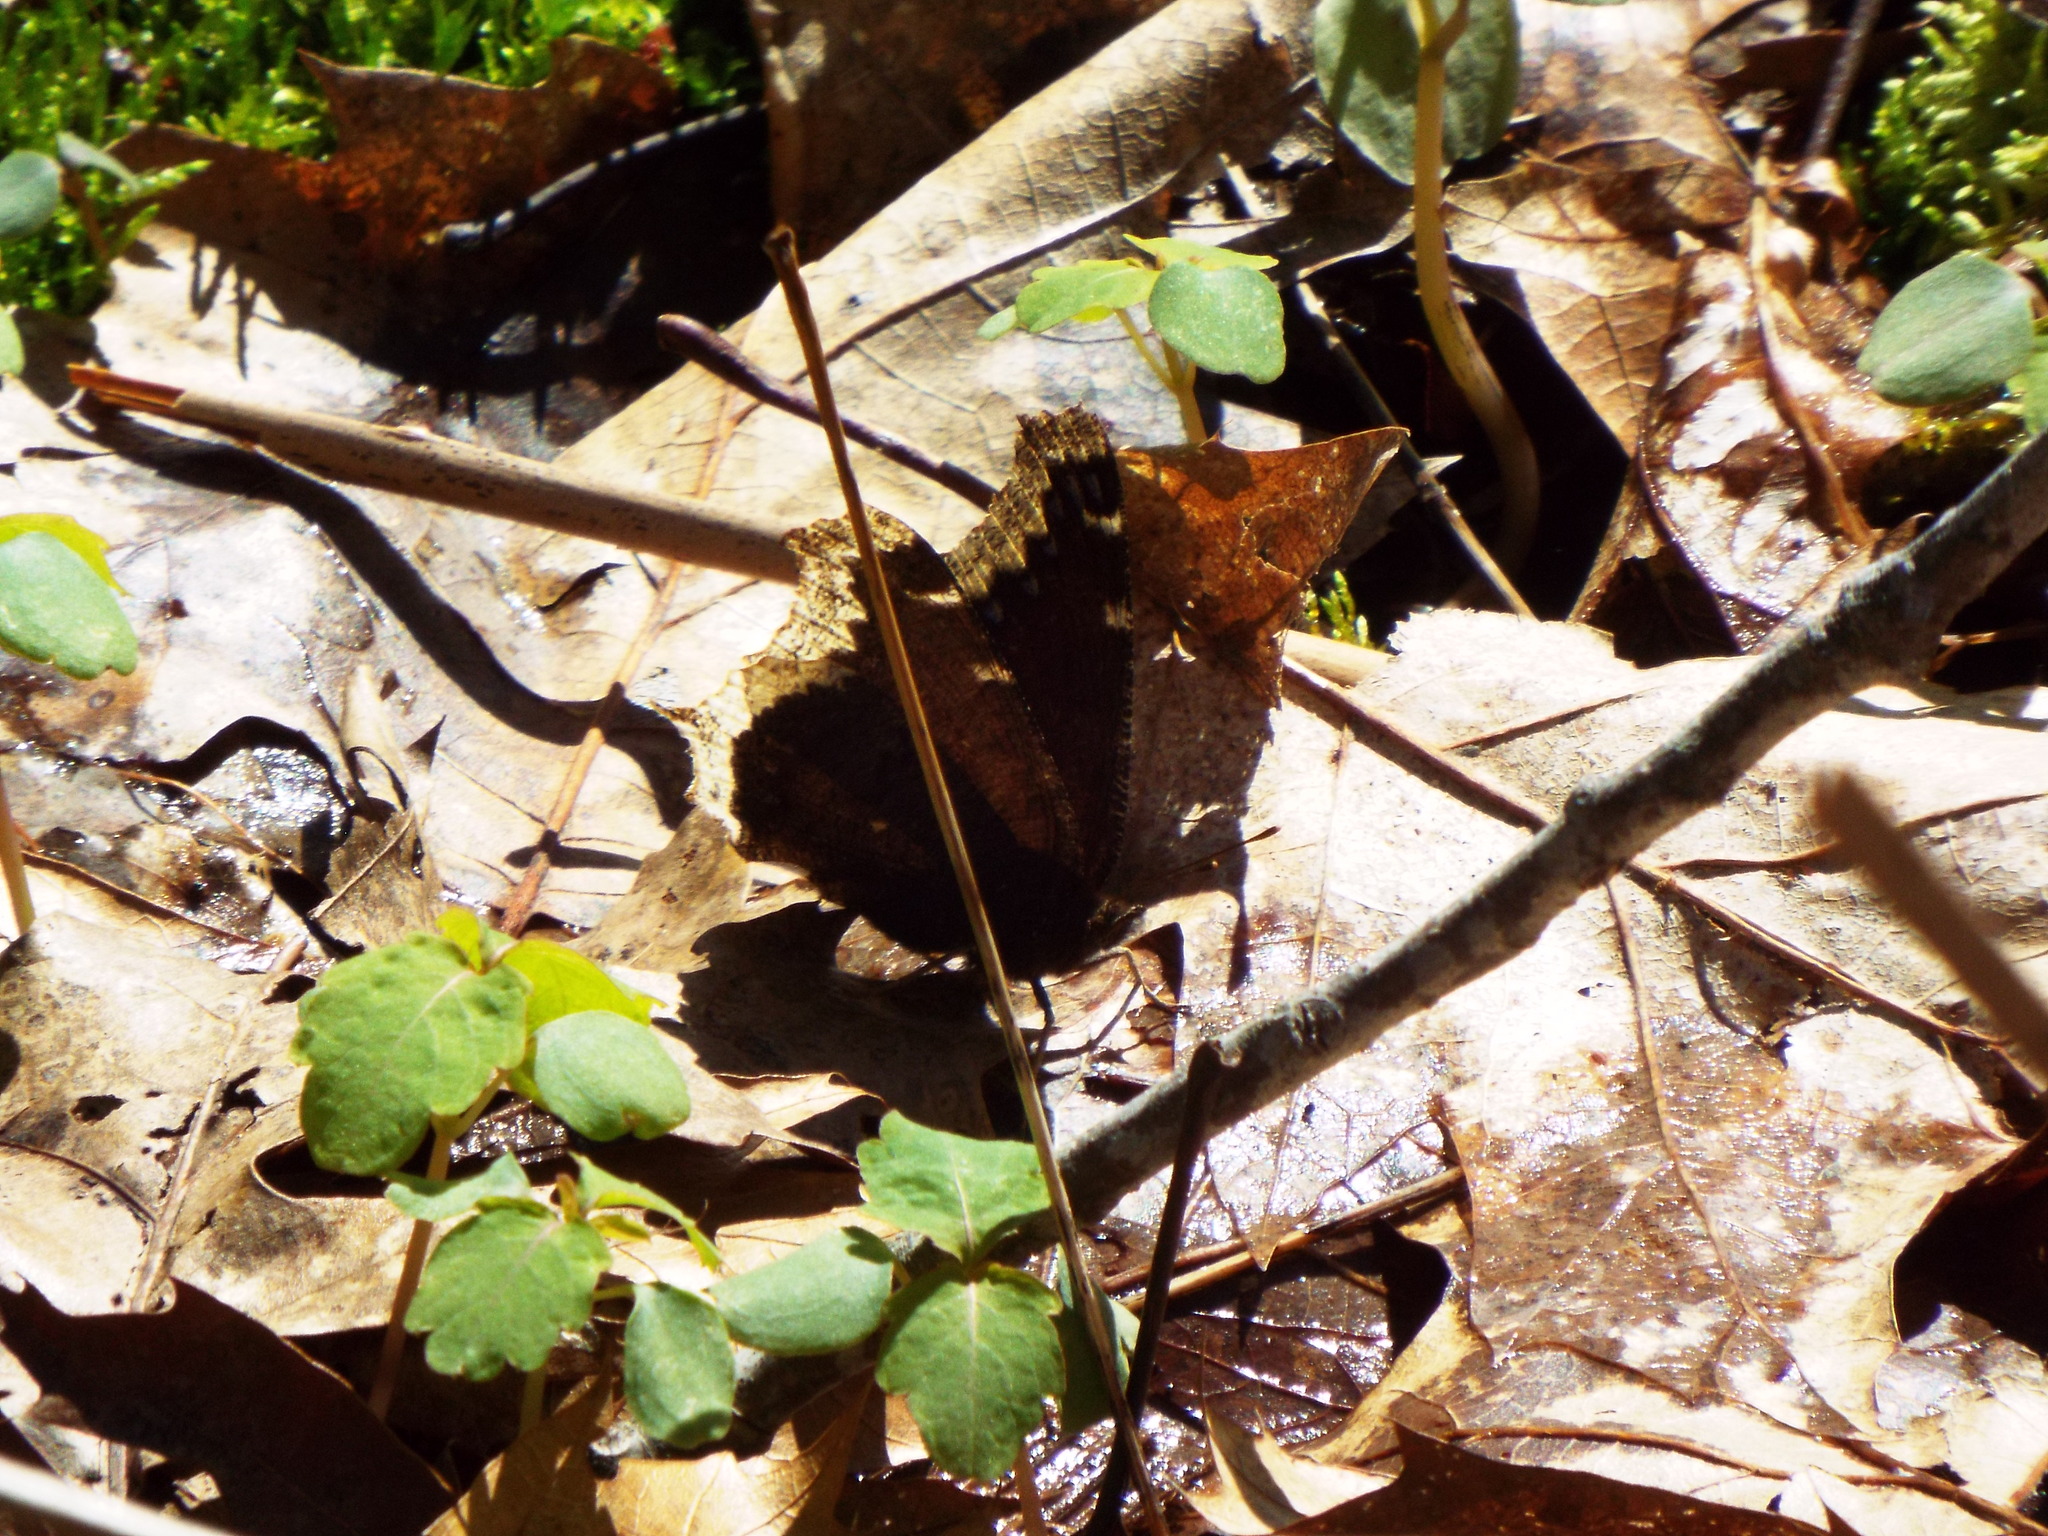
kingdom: Animalia
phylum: Arthropoda
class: Insecta
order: Lepidoptera
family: Nymphalidae
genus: Nymphalis
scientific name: Nymphalis antiopa
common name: Camberwell beauty
